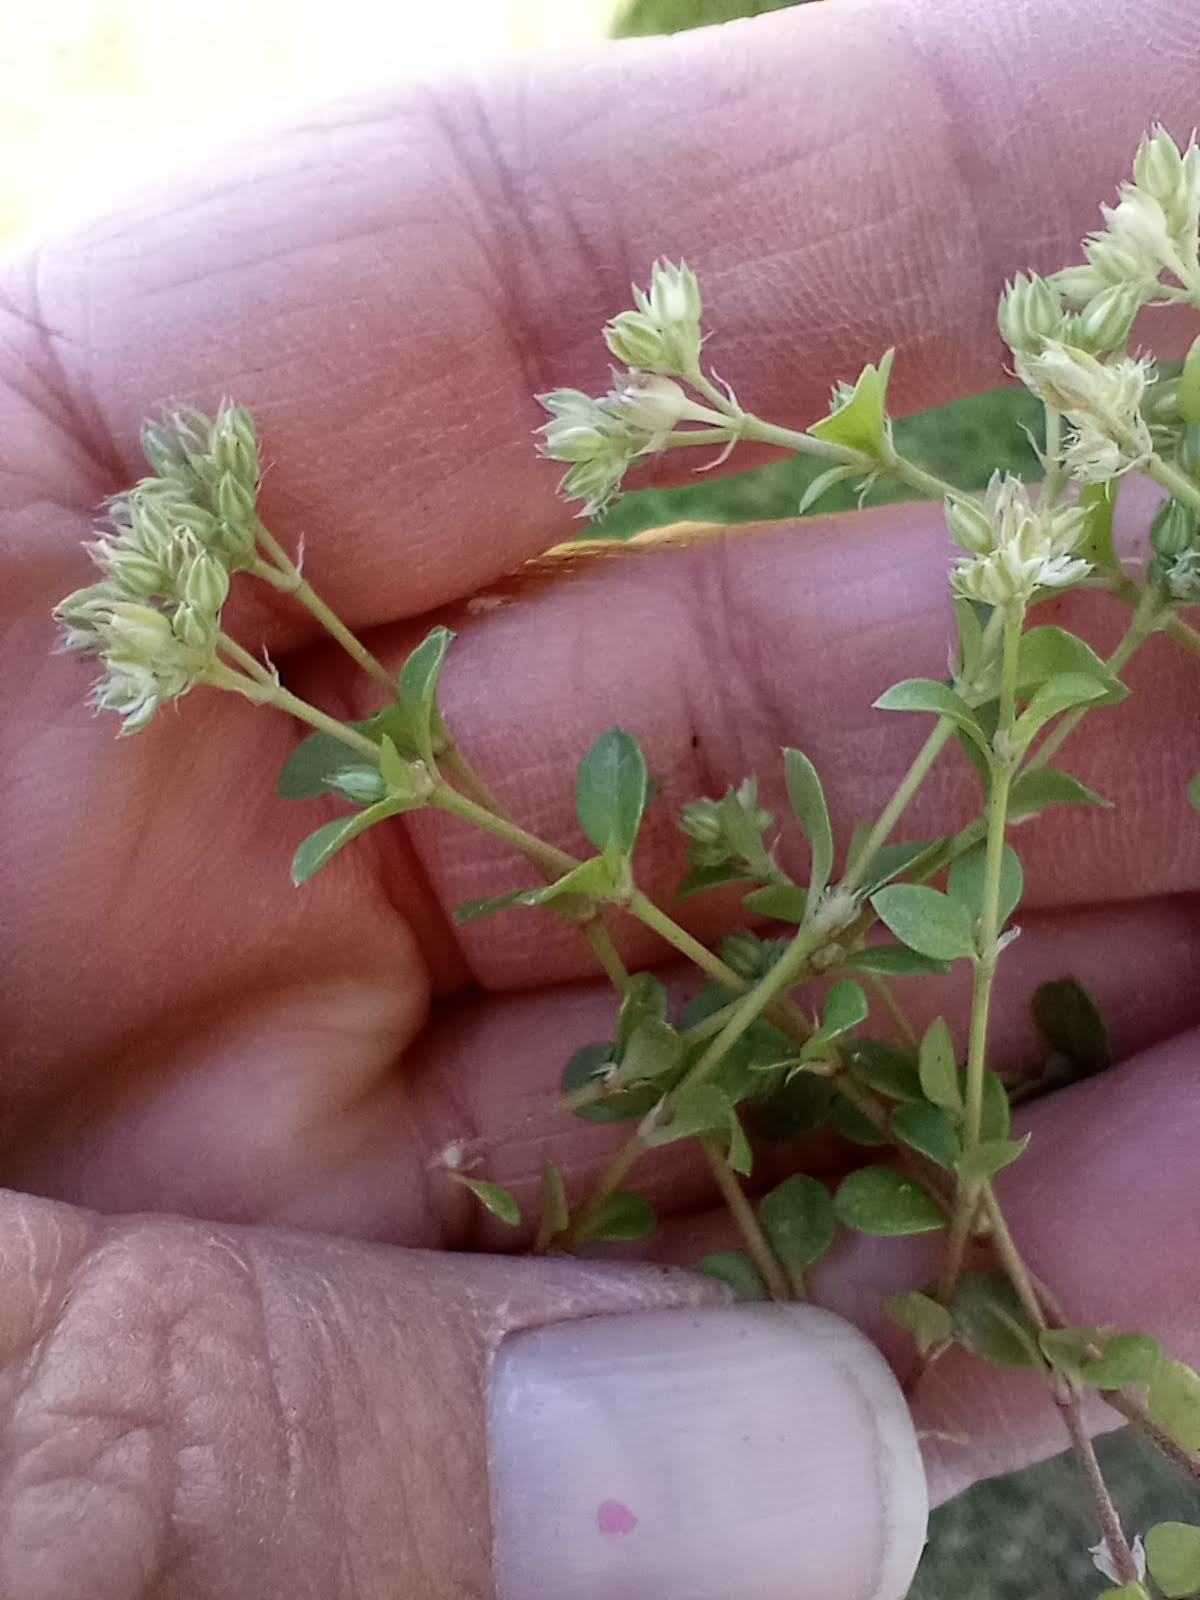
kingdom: Plantae
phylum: Tracheophyta
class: Magnoliopsida
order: Caryophyllales
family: Caryophyllaceae
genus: Polycarpon
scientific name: Polycarpon tetraphyllum
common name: Four-leaved all-seed
